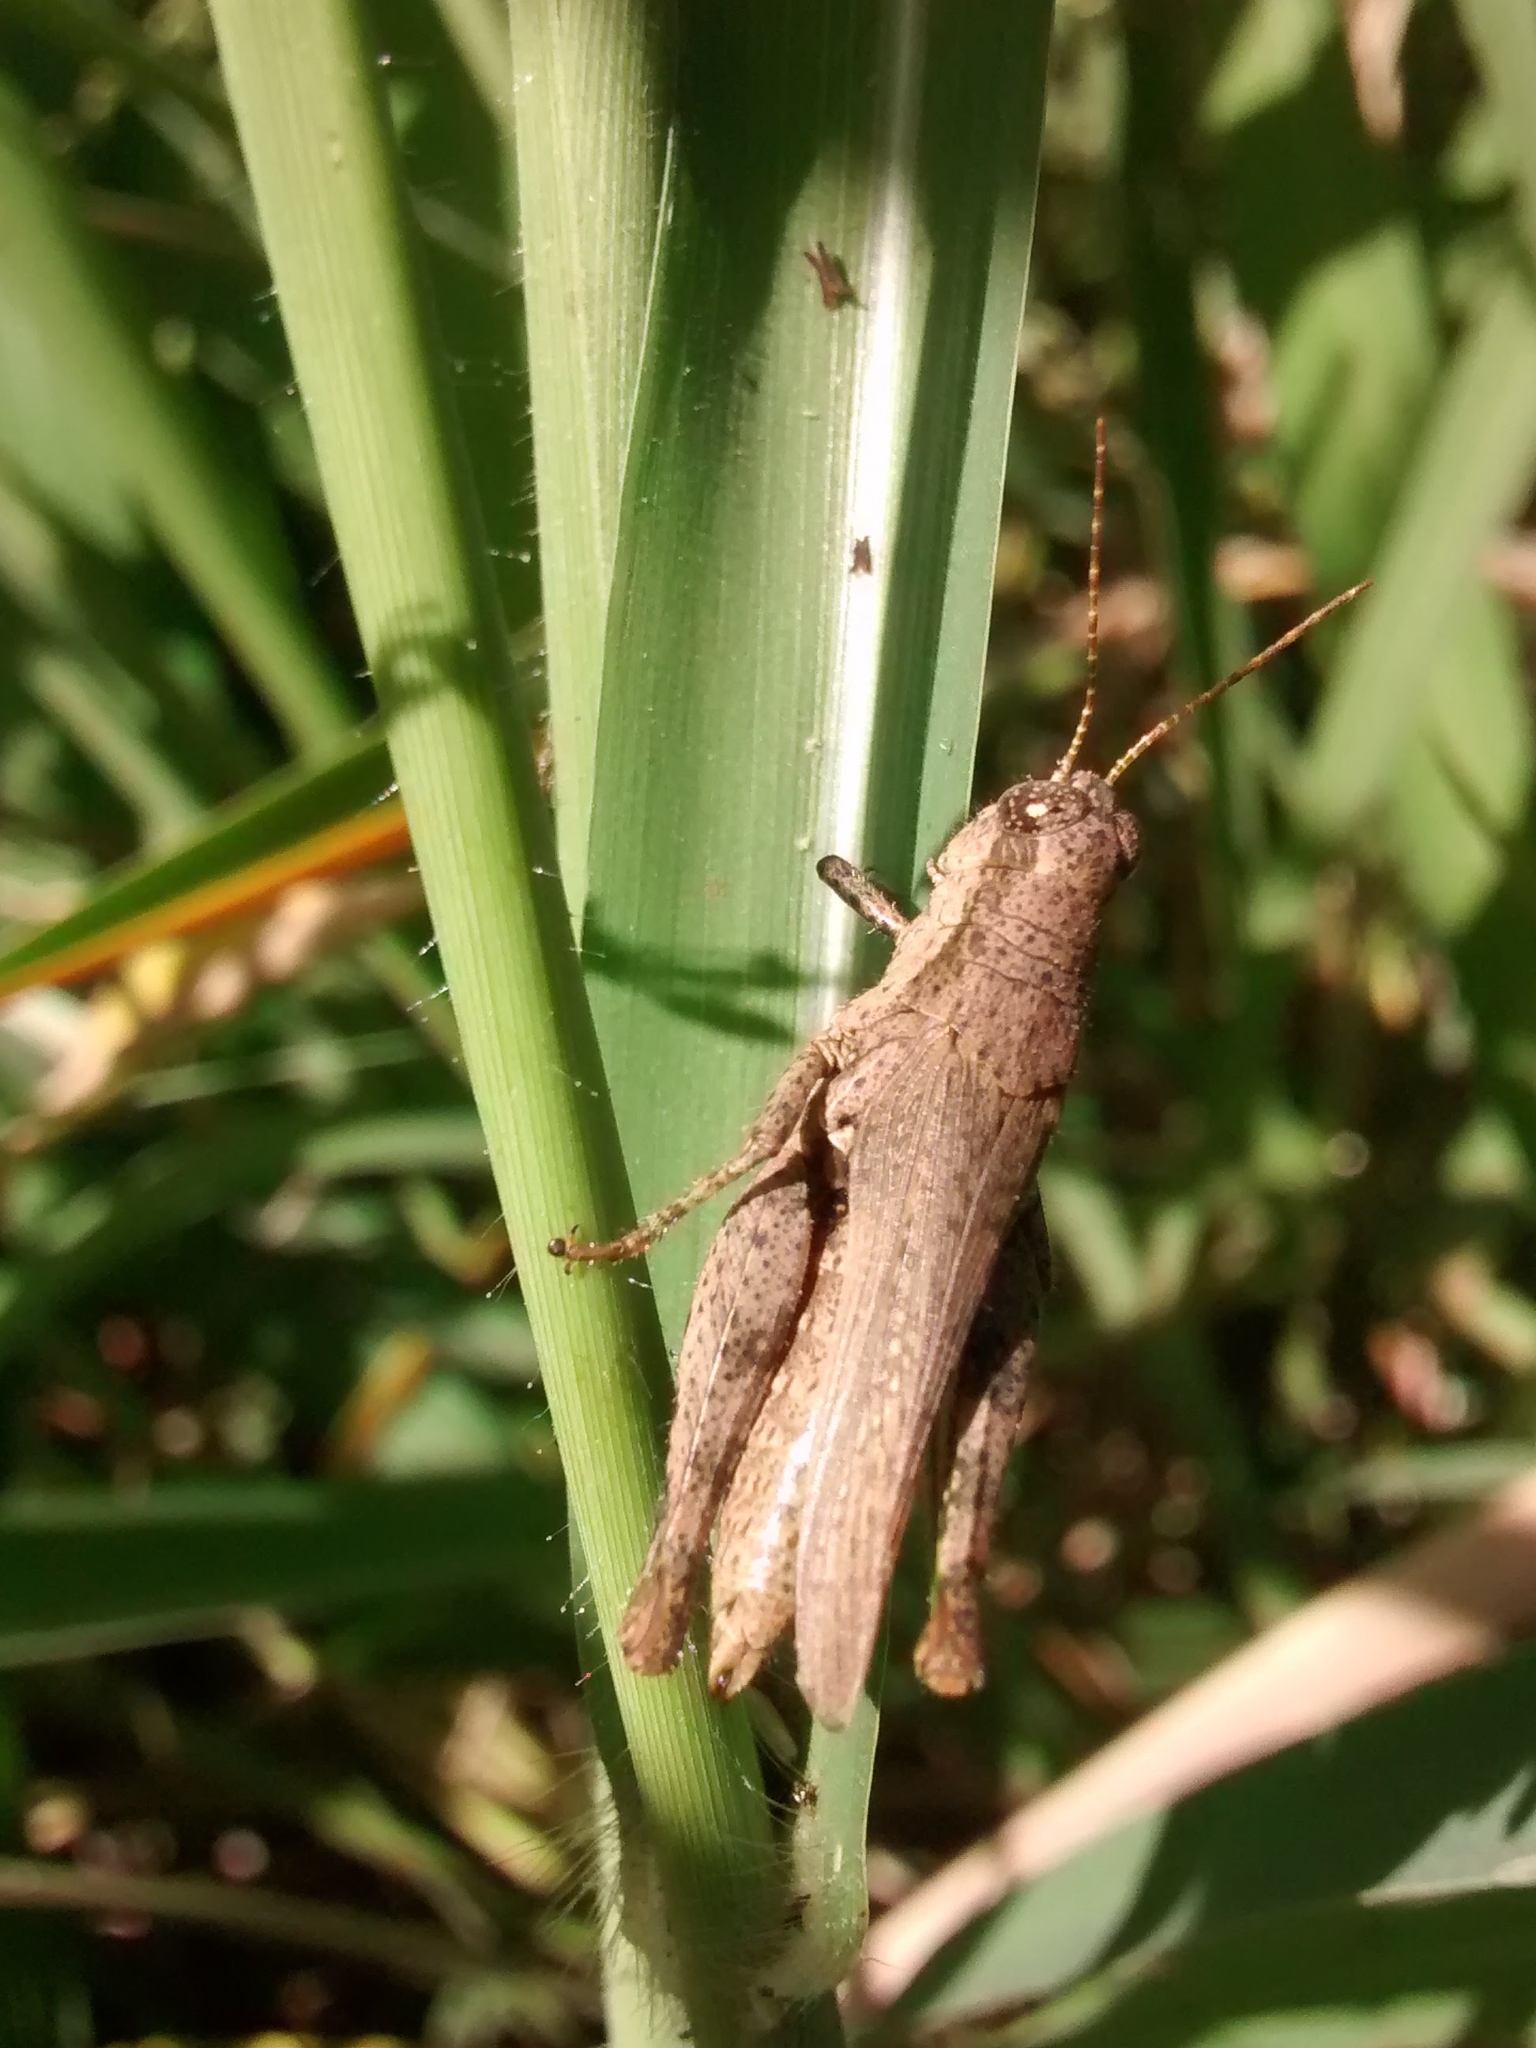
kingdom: Animalia
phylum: Arthropoda
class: Insecta
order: Orthoptera
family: Acrididae
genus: Ronderosia
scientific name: Ronderosia bergii
